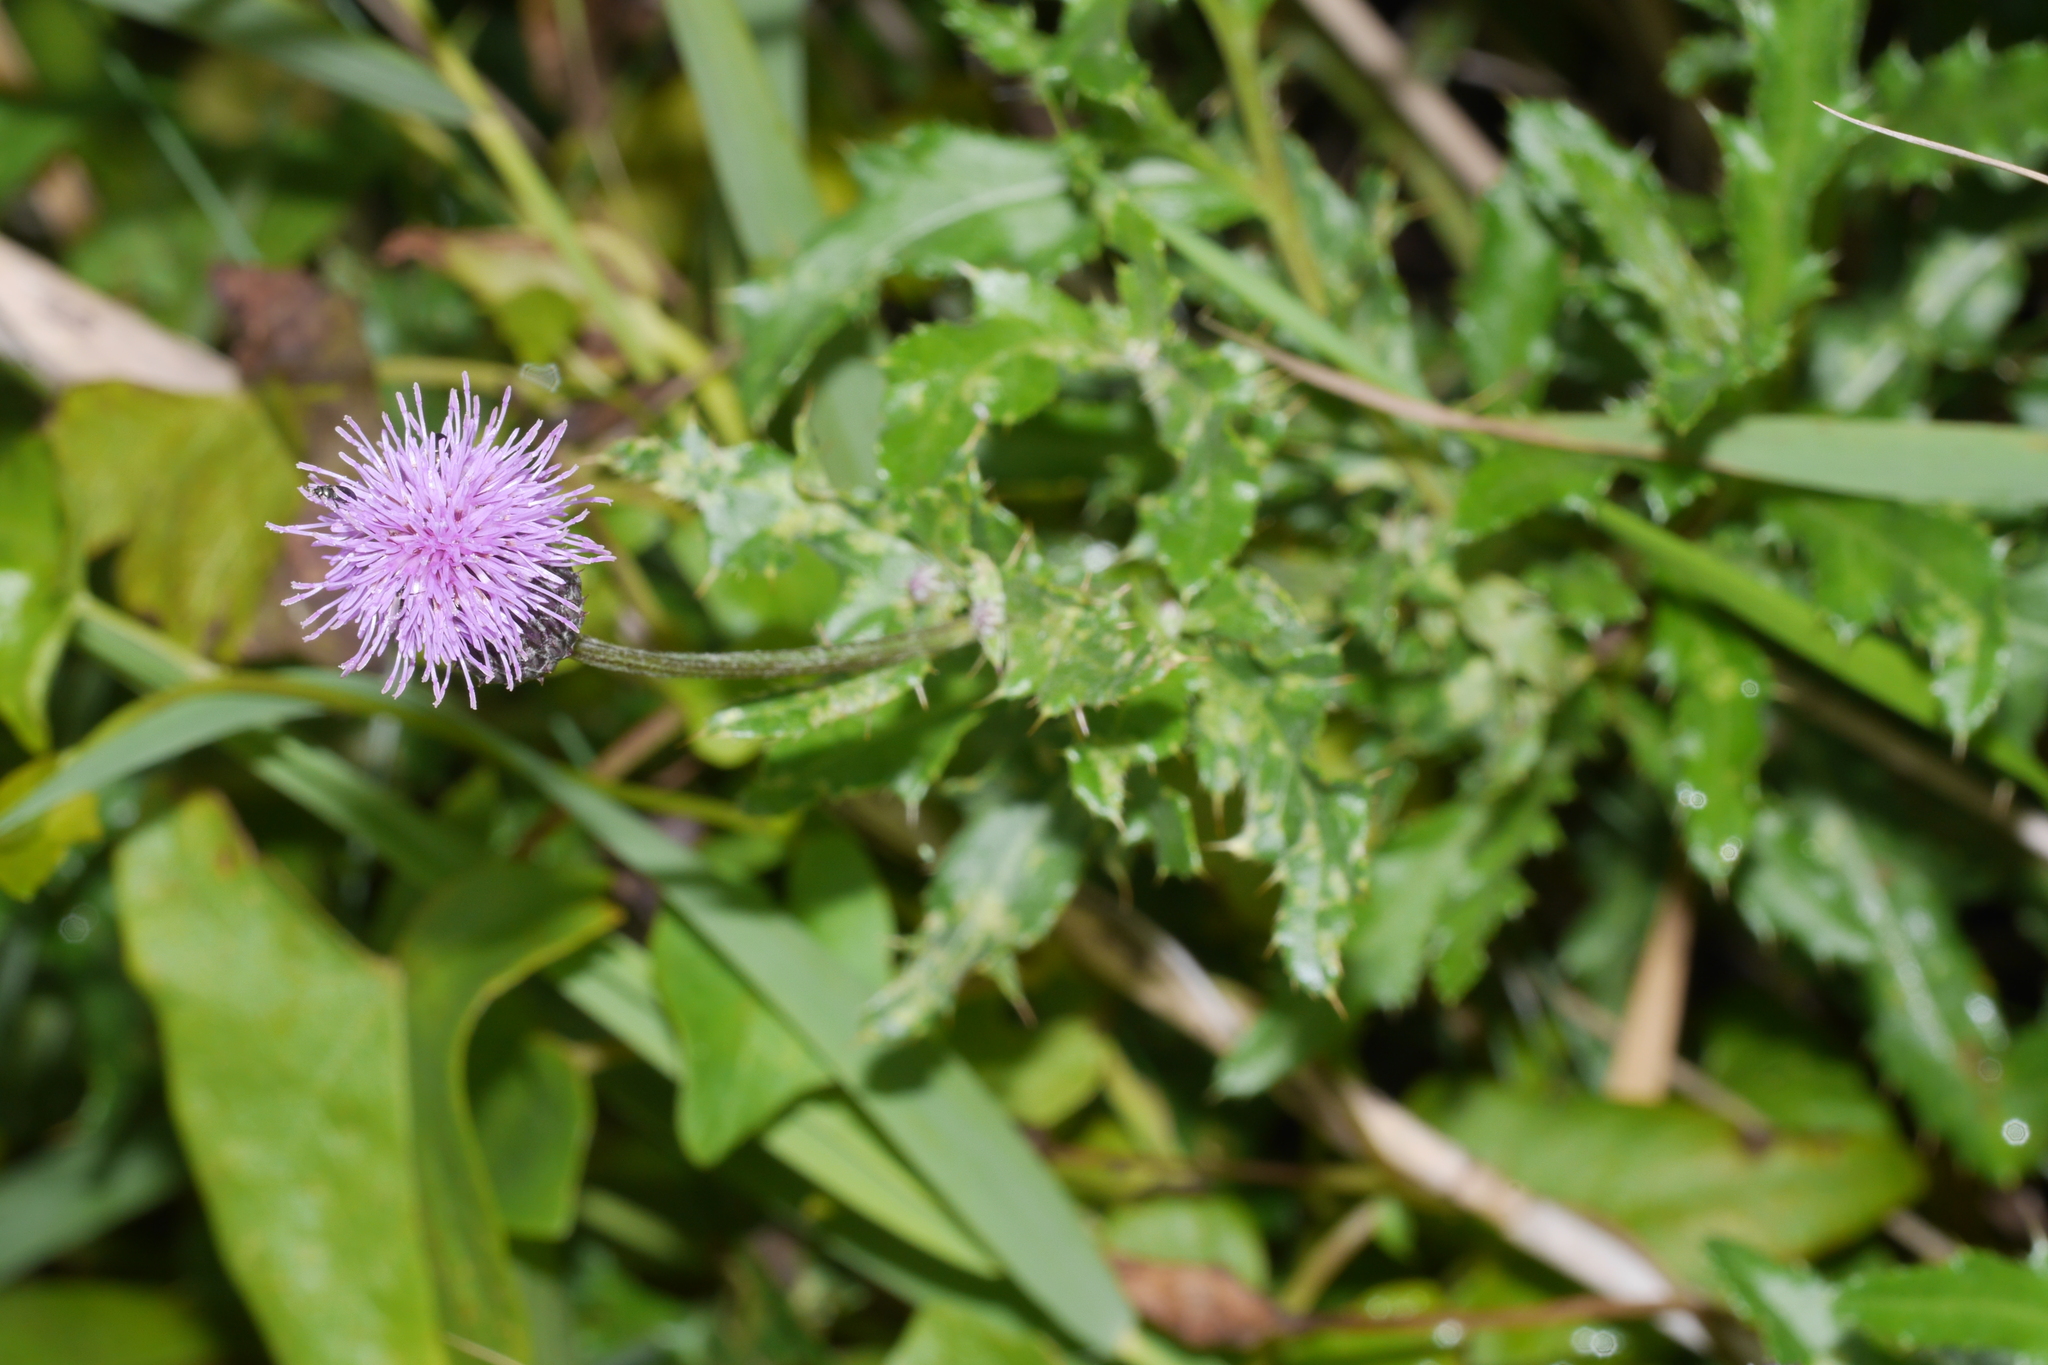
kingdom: Plantae
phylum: Tracheophyta
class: Magnoliopsida
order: Asterales
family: Asteraceae
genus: Cirsium
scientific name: Cirsium arvense
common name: Creeping thistle
